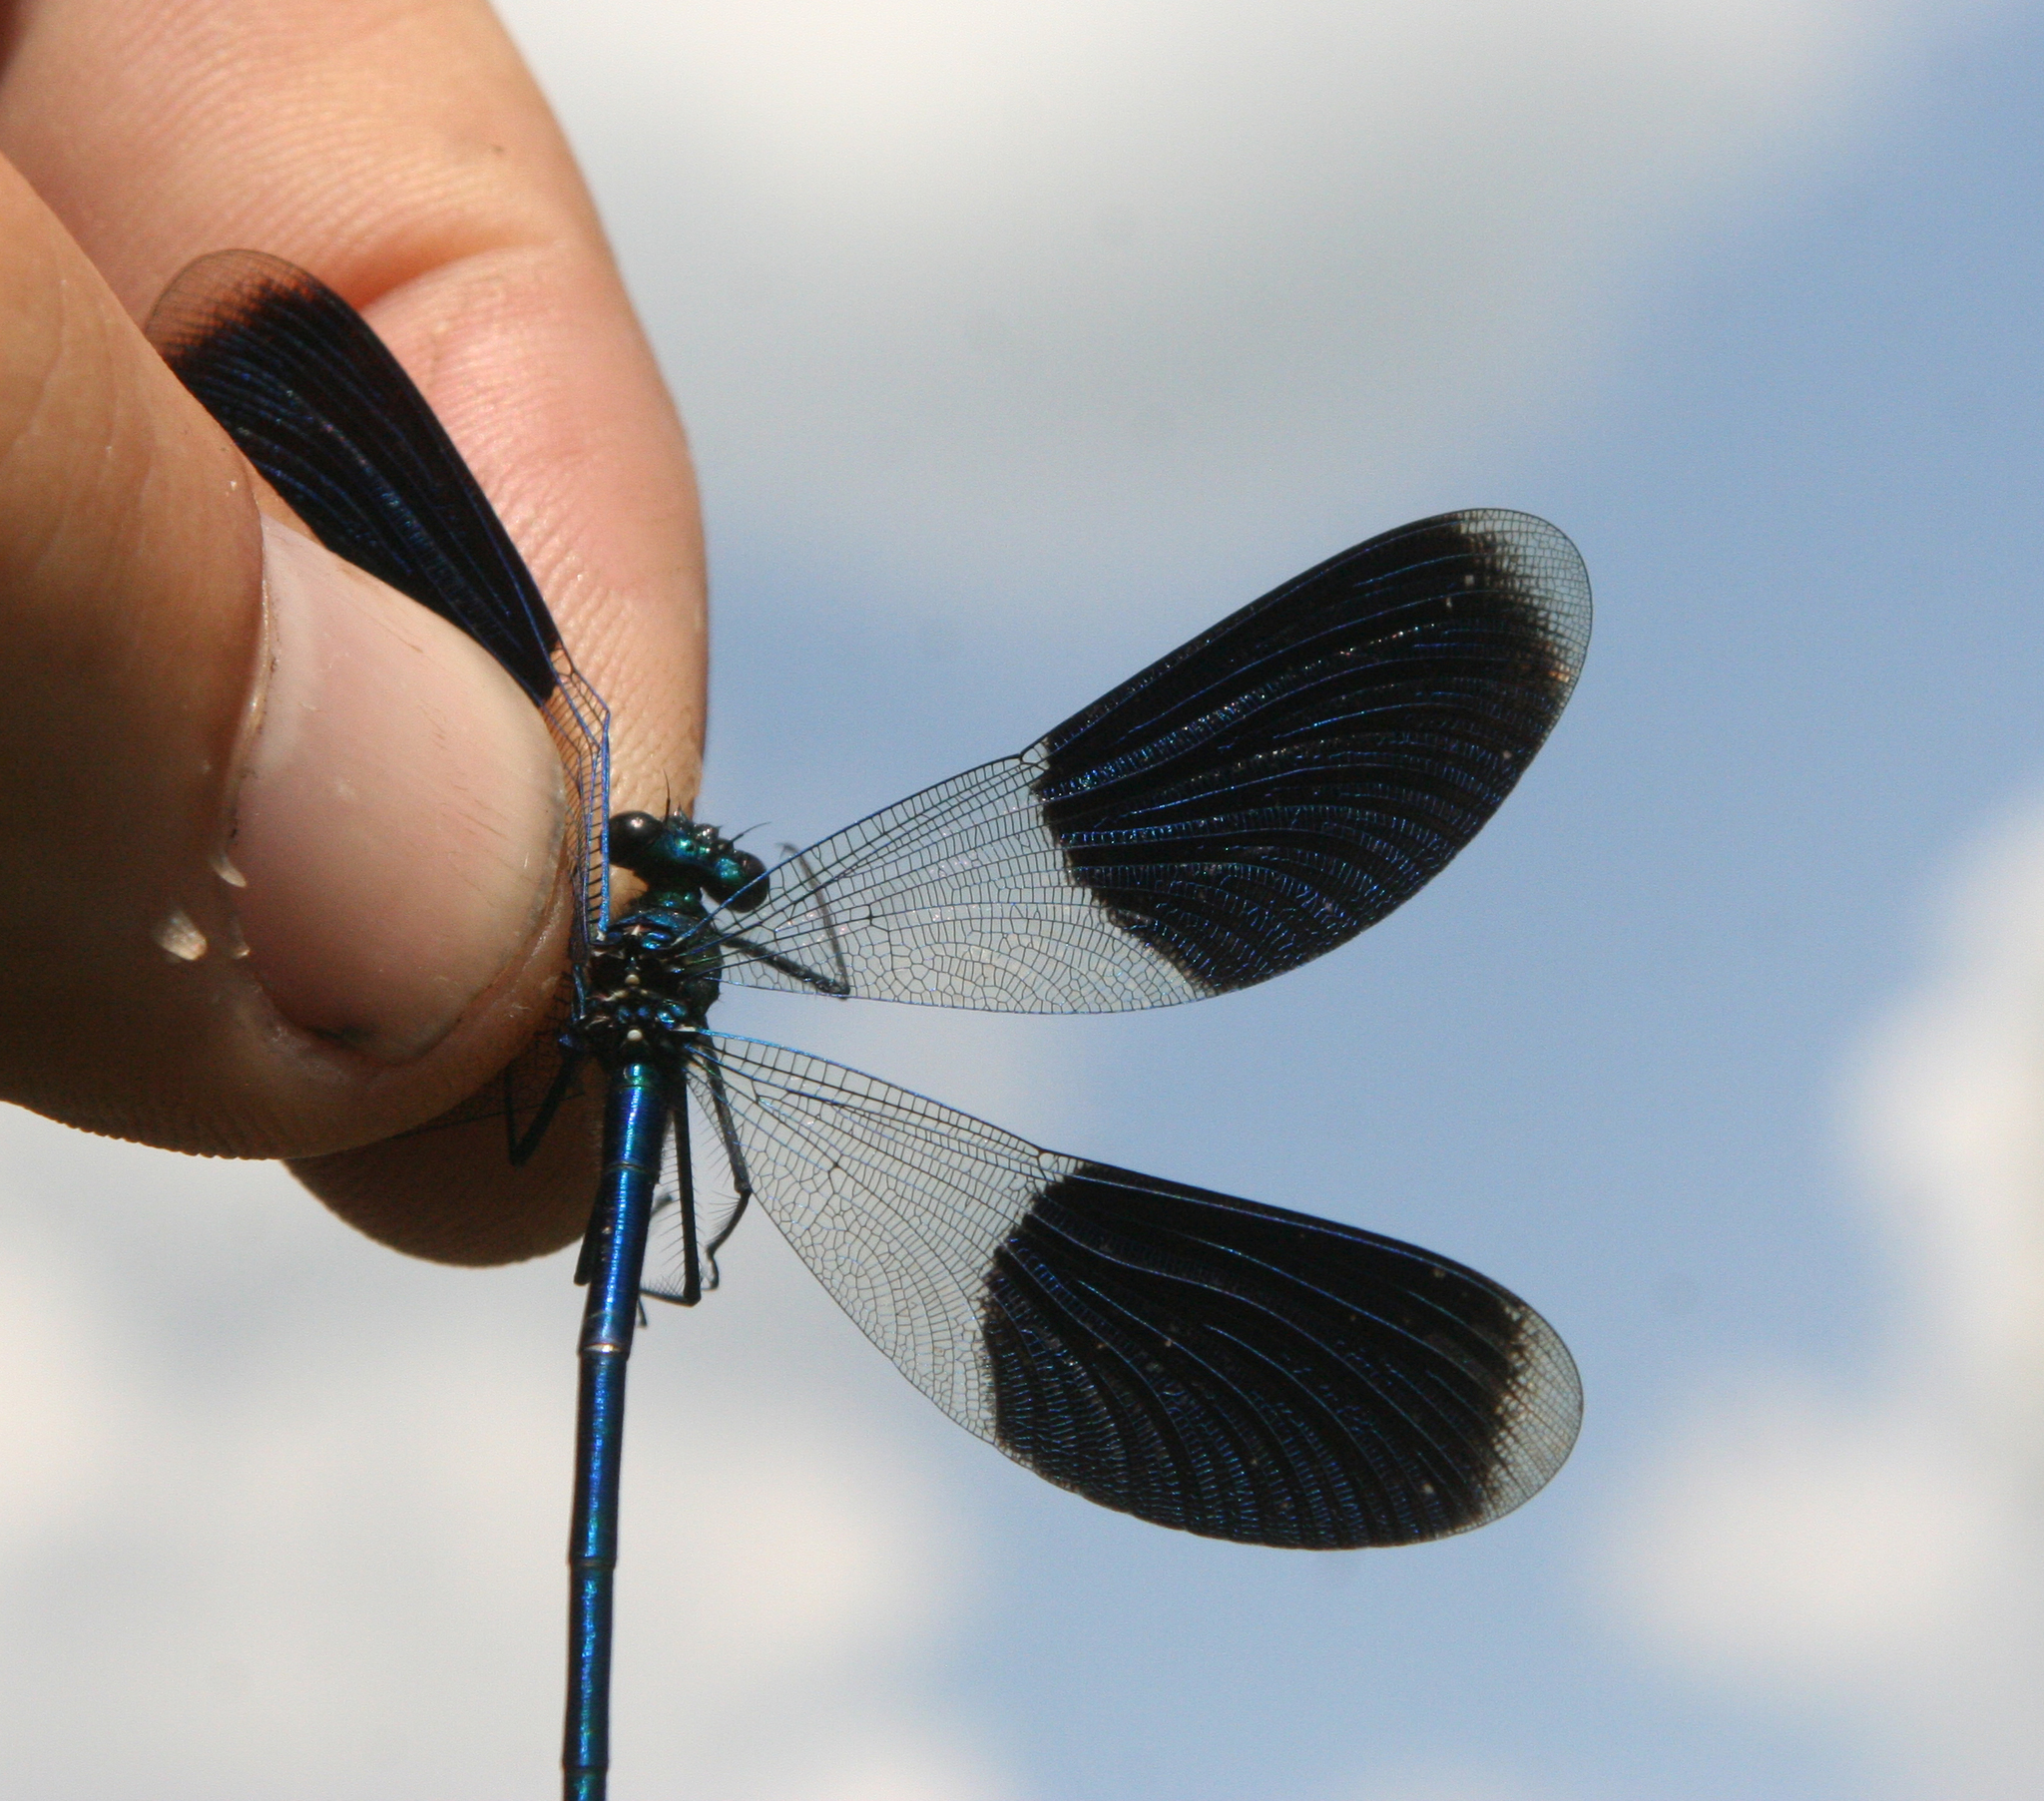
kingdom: Animalia
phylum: Arthropoda
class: Insecta
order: Odonata
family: Calopterygidae
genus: Calopteryx
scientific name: Calopteryx splendens
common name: Banded demoiselle
